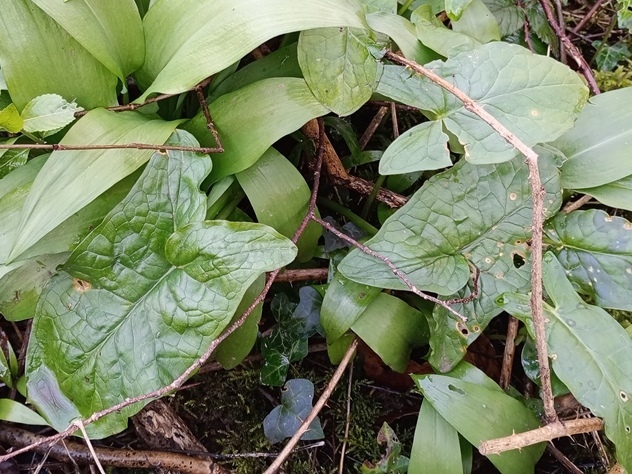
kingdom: Plantae
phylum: Tracheophyta
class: Liliopsida
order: Alismatales
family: Araceae
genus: Arum
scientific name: Arum maculatum
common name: Lords-and-ladies
